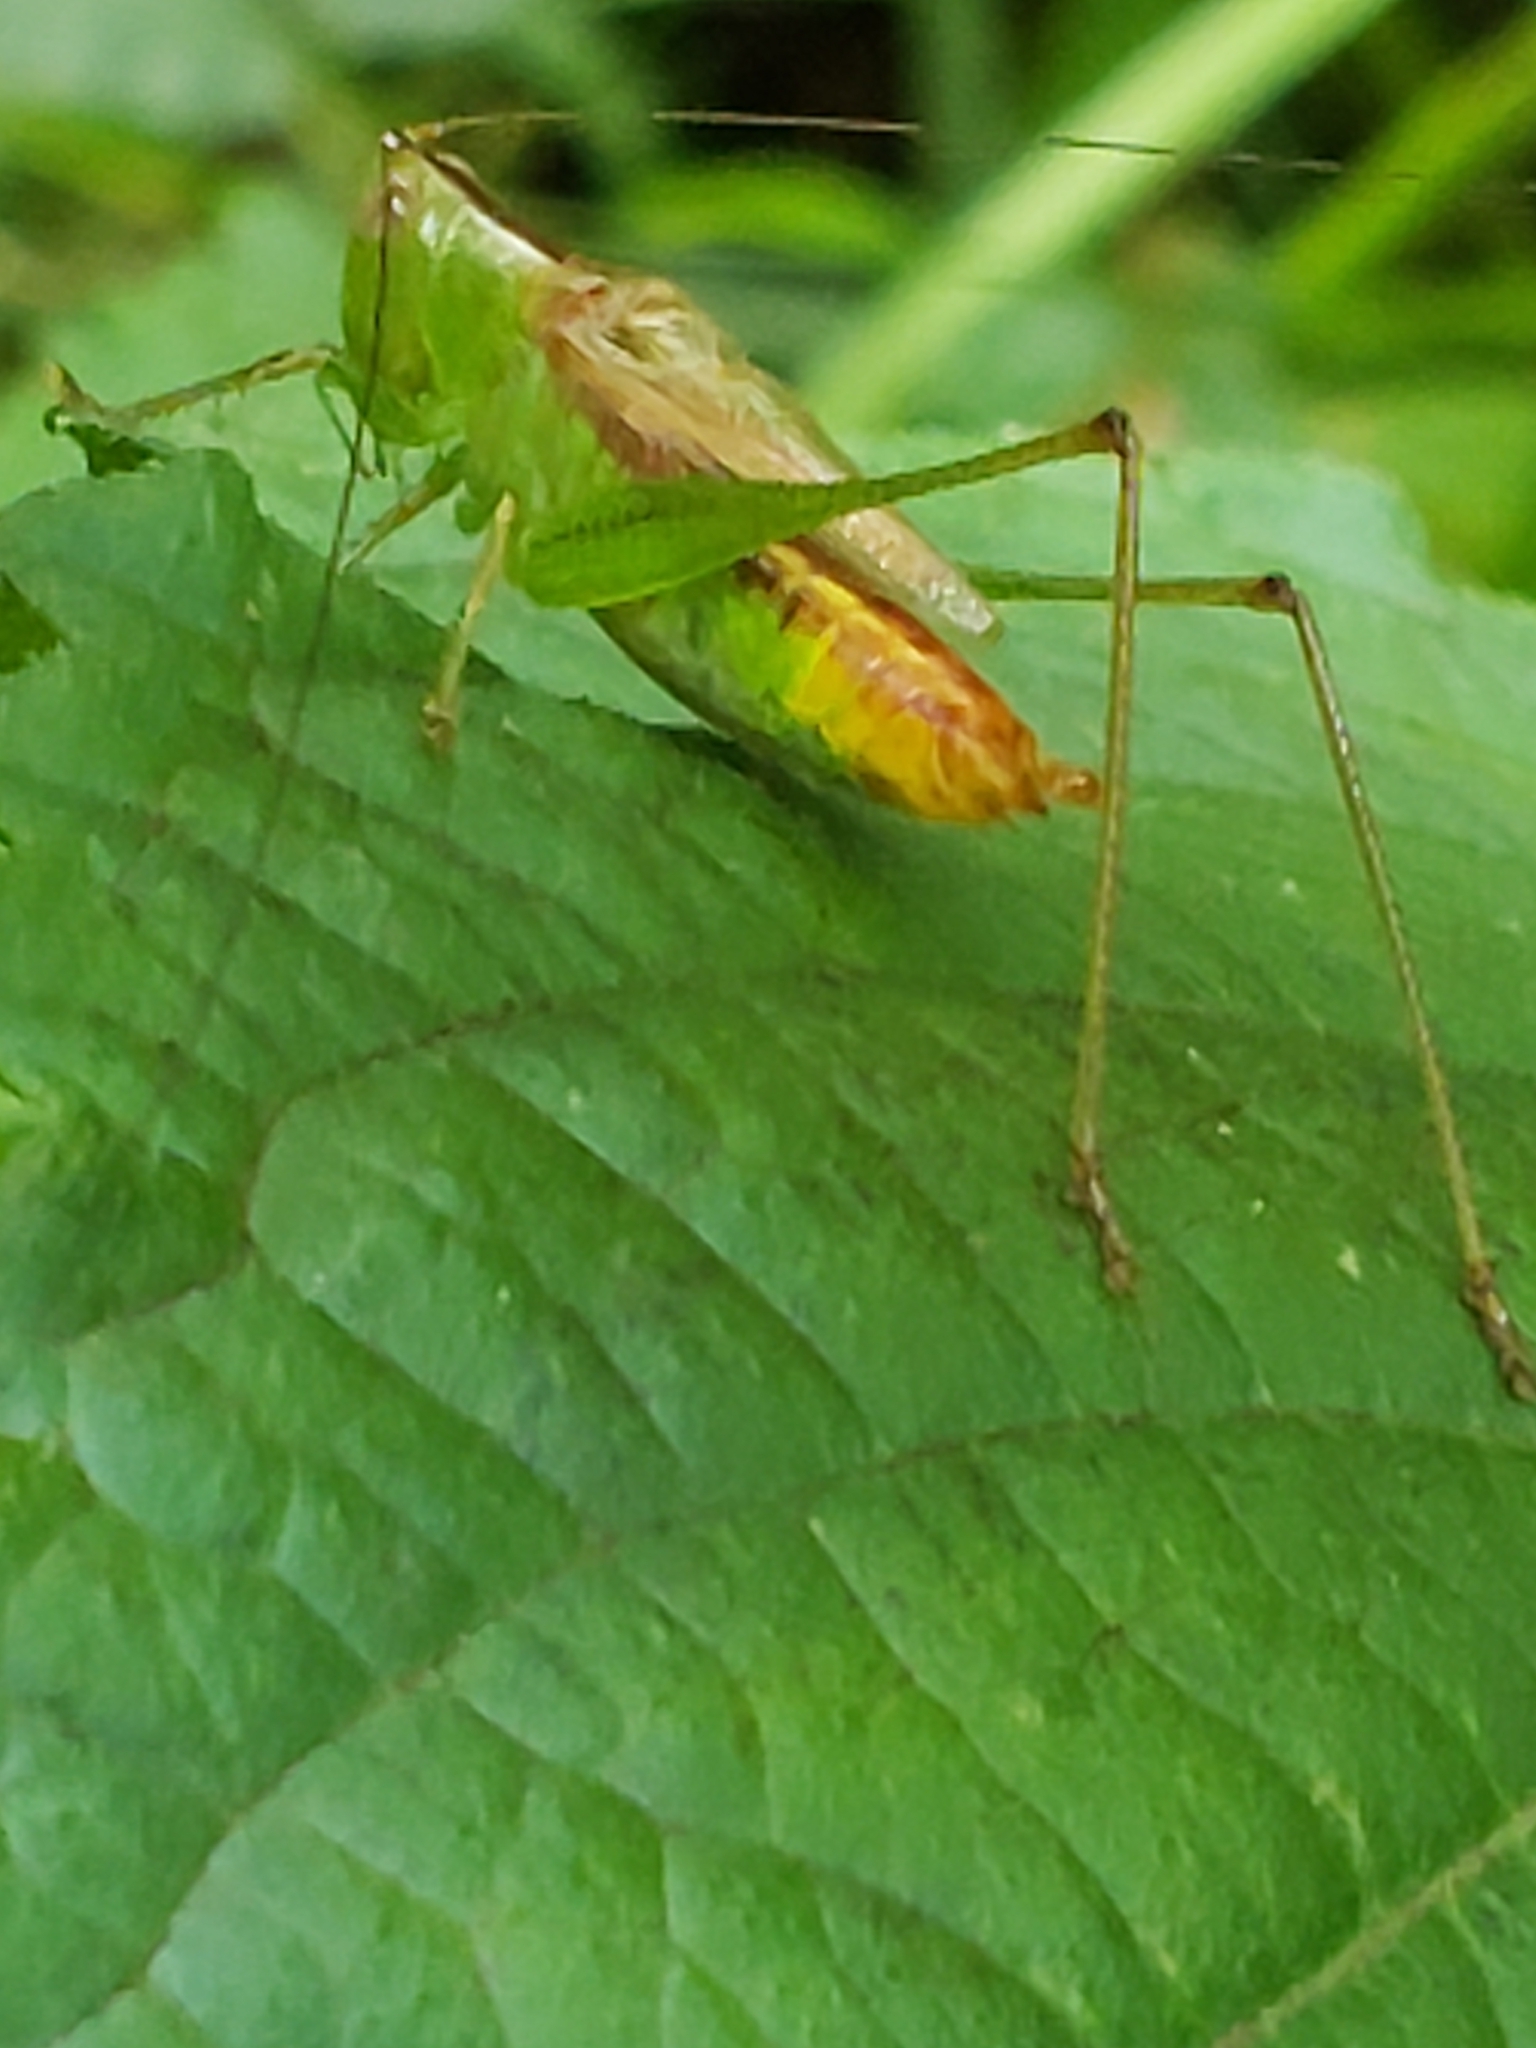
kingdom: Animalia
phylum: Arthropoda
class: Insecta
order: Orthoptera
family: Tettigoniidae
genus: Conocephalus
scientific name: Conocephalus brevipennis
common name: Short-winged meadow katydid
